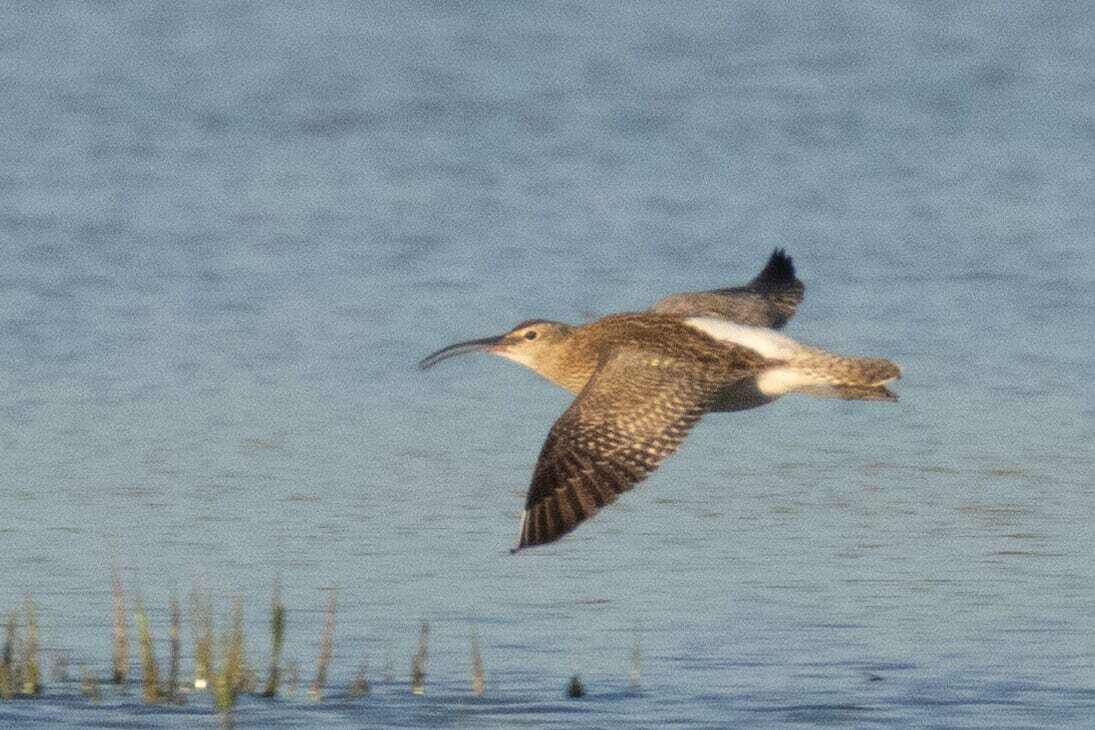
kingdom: Animalia
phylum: Chordata
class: Aves
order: Charadriiformes
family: Scolopacidae
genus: Numenius
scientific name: Numenius phaeopus
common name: Whimbrel
